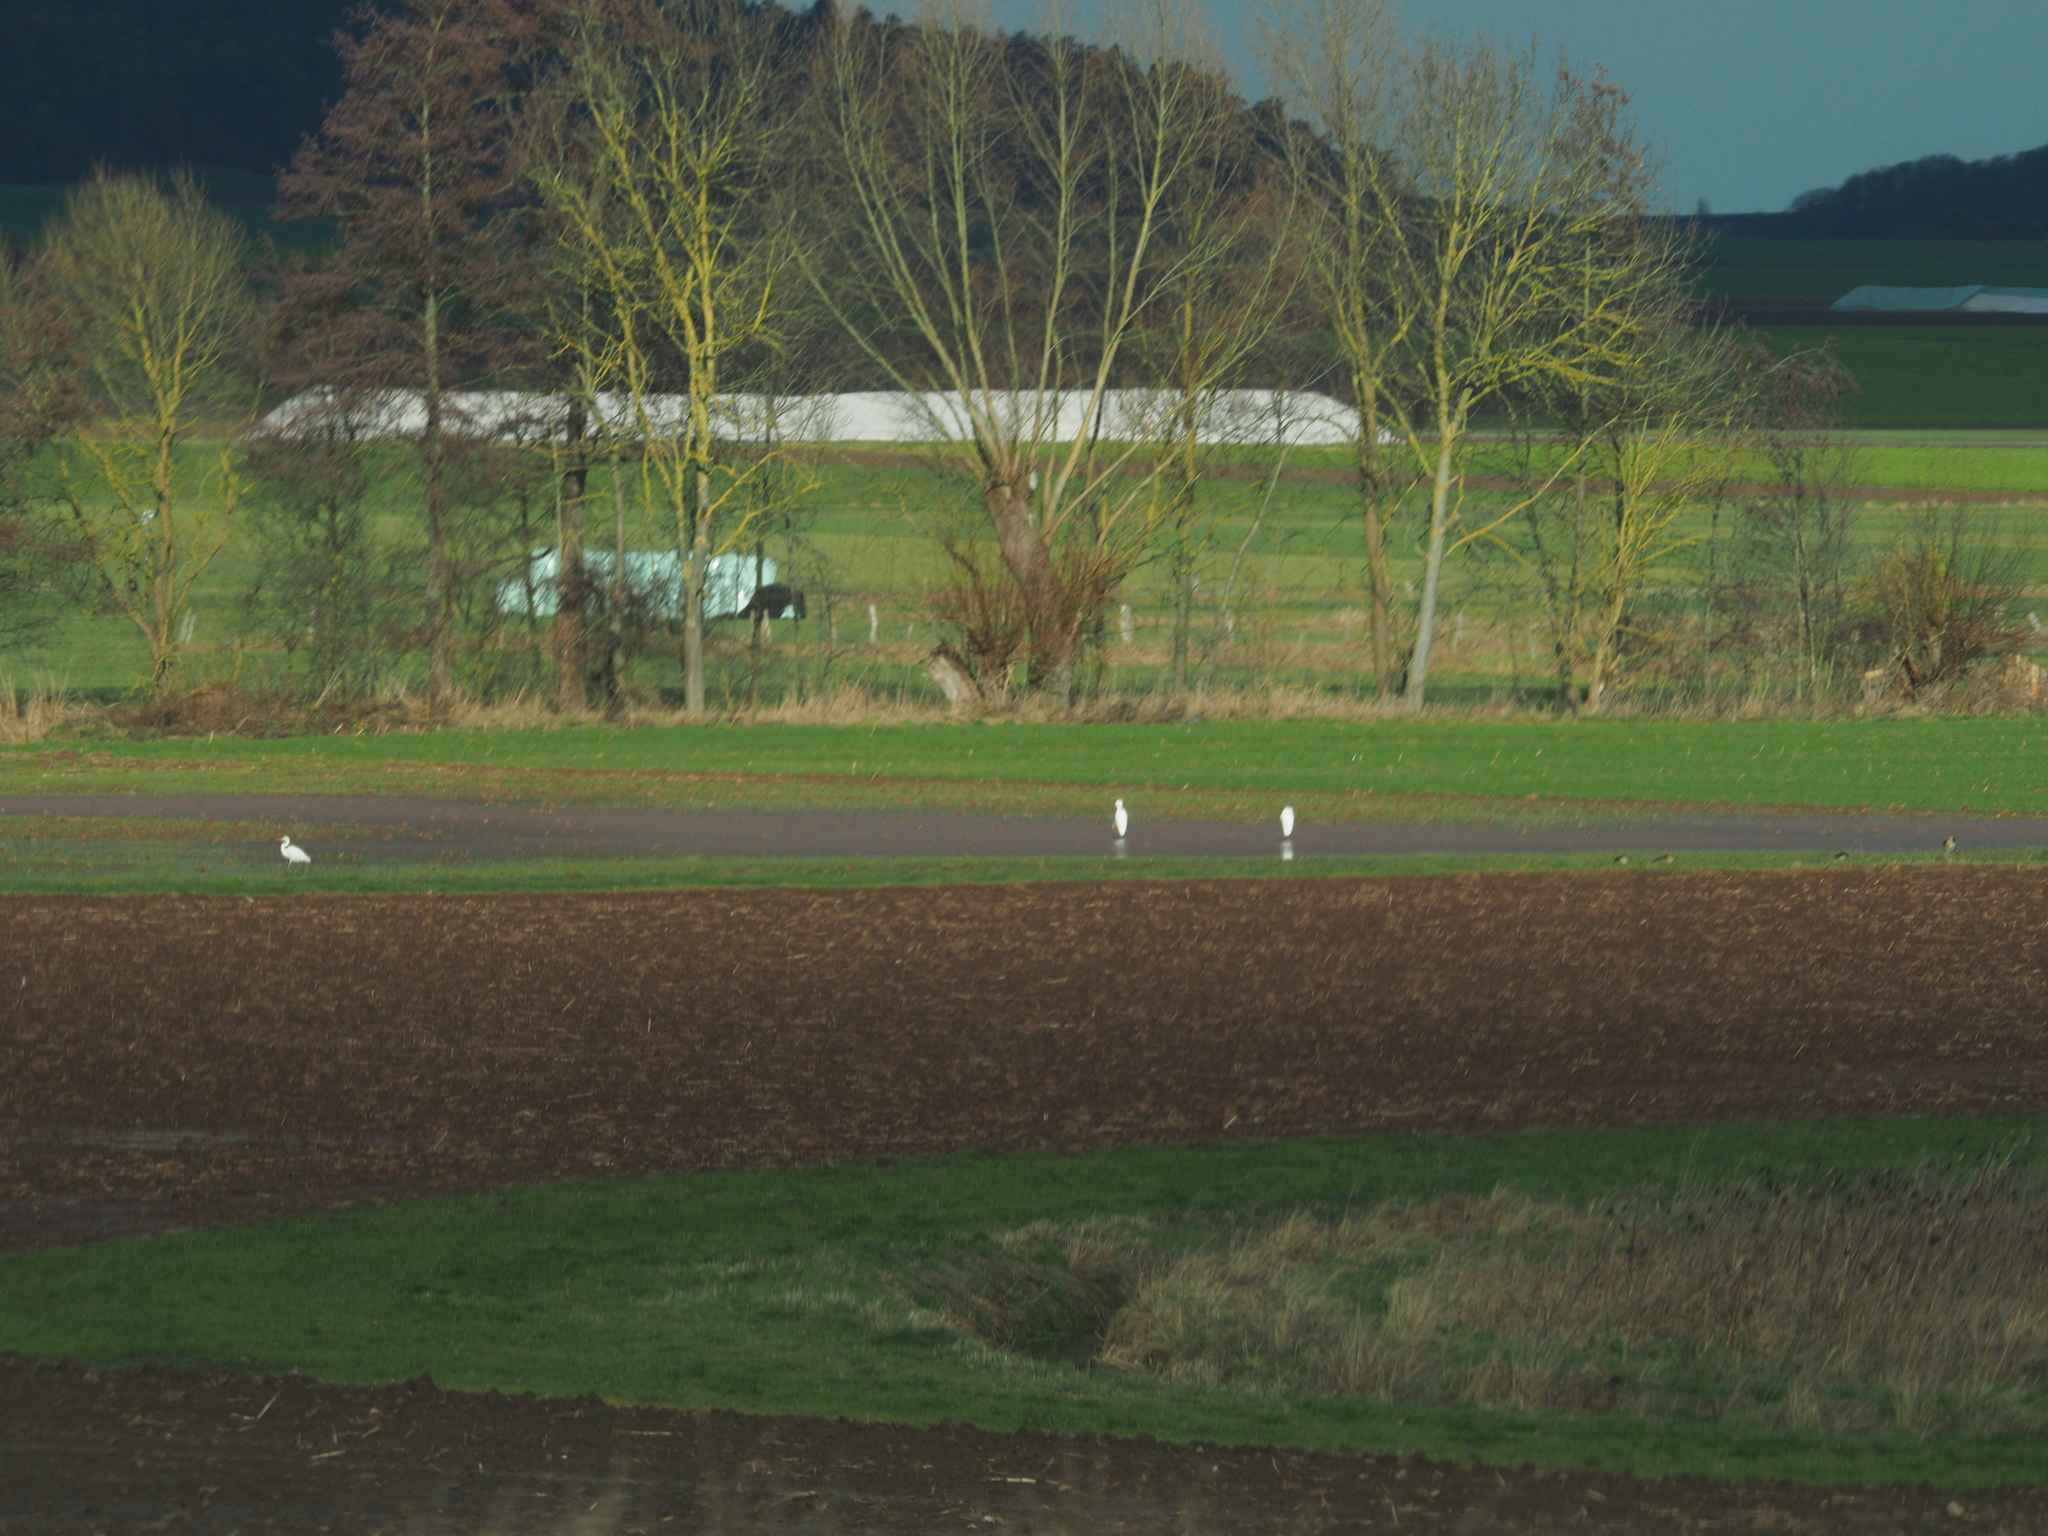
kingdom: Animalia
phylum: Chordata
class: Aves
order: Pelecaniformes
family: Ardeidae
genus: Ardea
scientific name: Ardea alba
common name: Great egret
